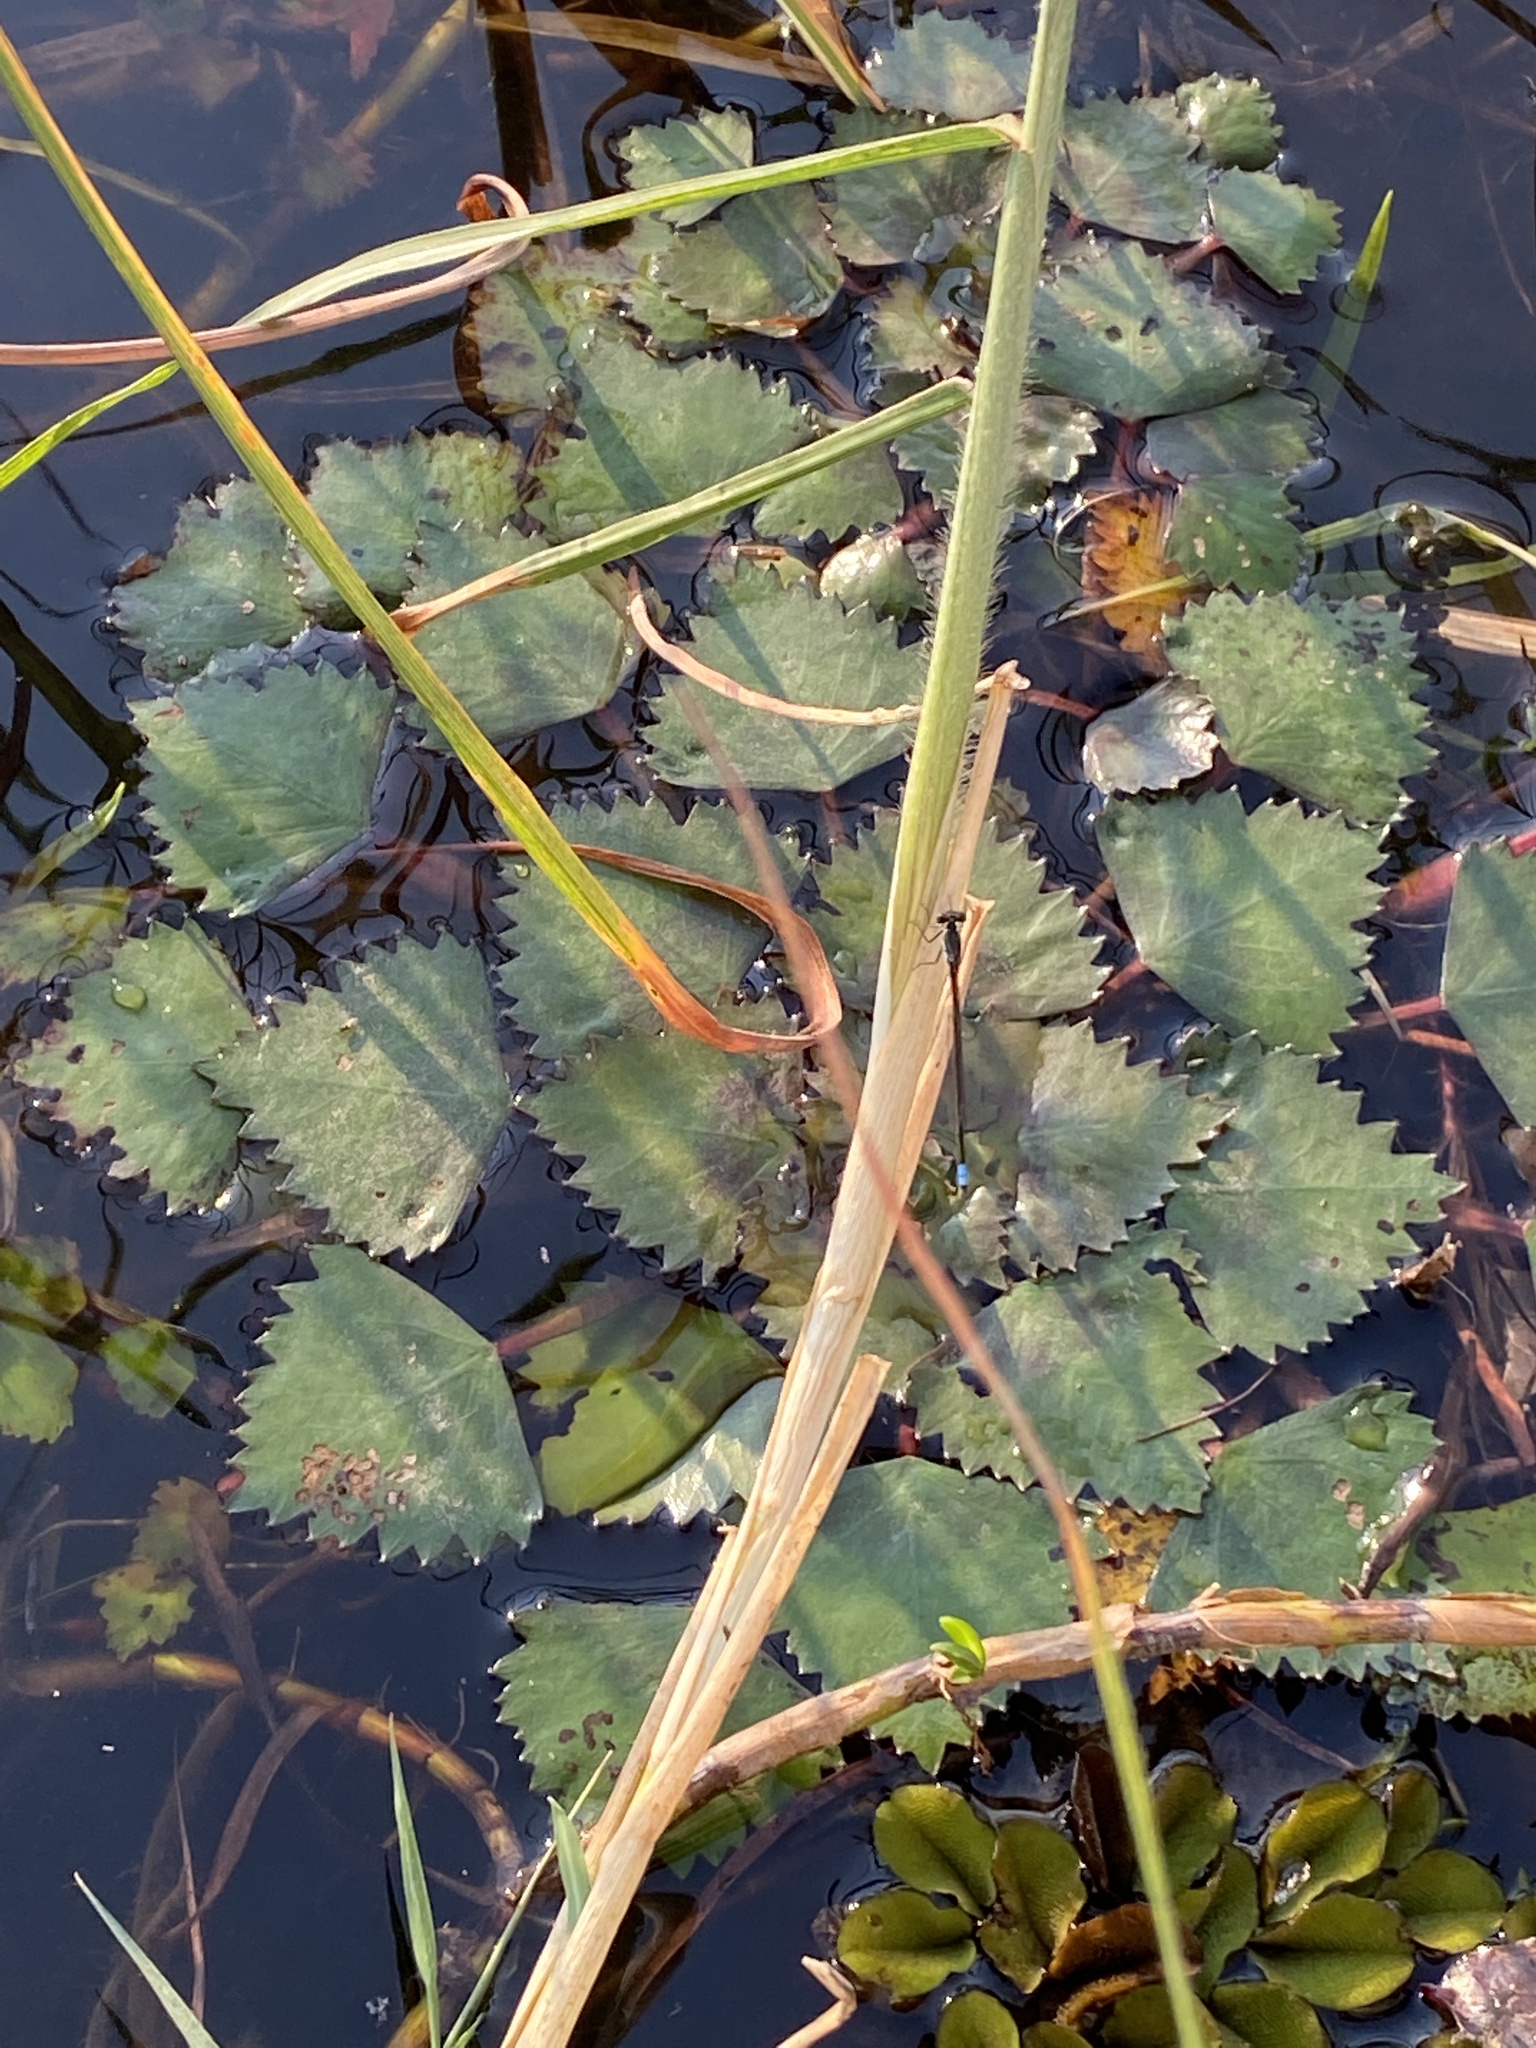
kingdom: Plantae
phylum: Tracheophyta
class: Magnoliopsida
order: Myrtales
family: Lythraceae
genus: Trapa
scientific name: Trapa natans
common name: Water chestnut
